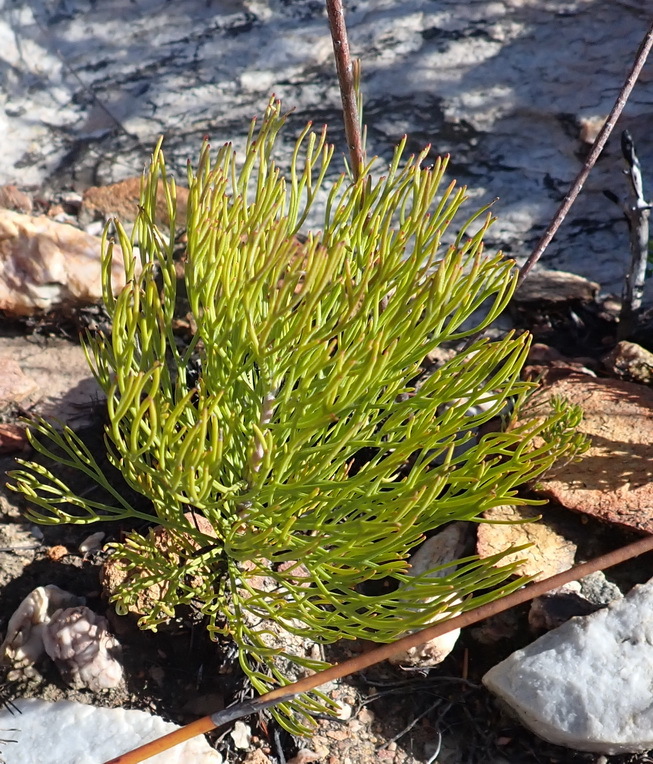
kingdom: Plantae
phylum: Tracheophyta
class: Magnoliopsida
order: Proteales
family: Proteaceae
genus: Serruria
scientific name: Serruria fasciflora
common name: Common pin spiderhead
